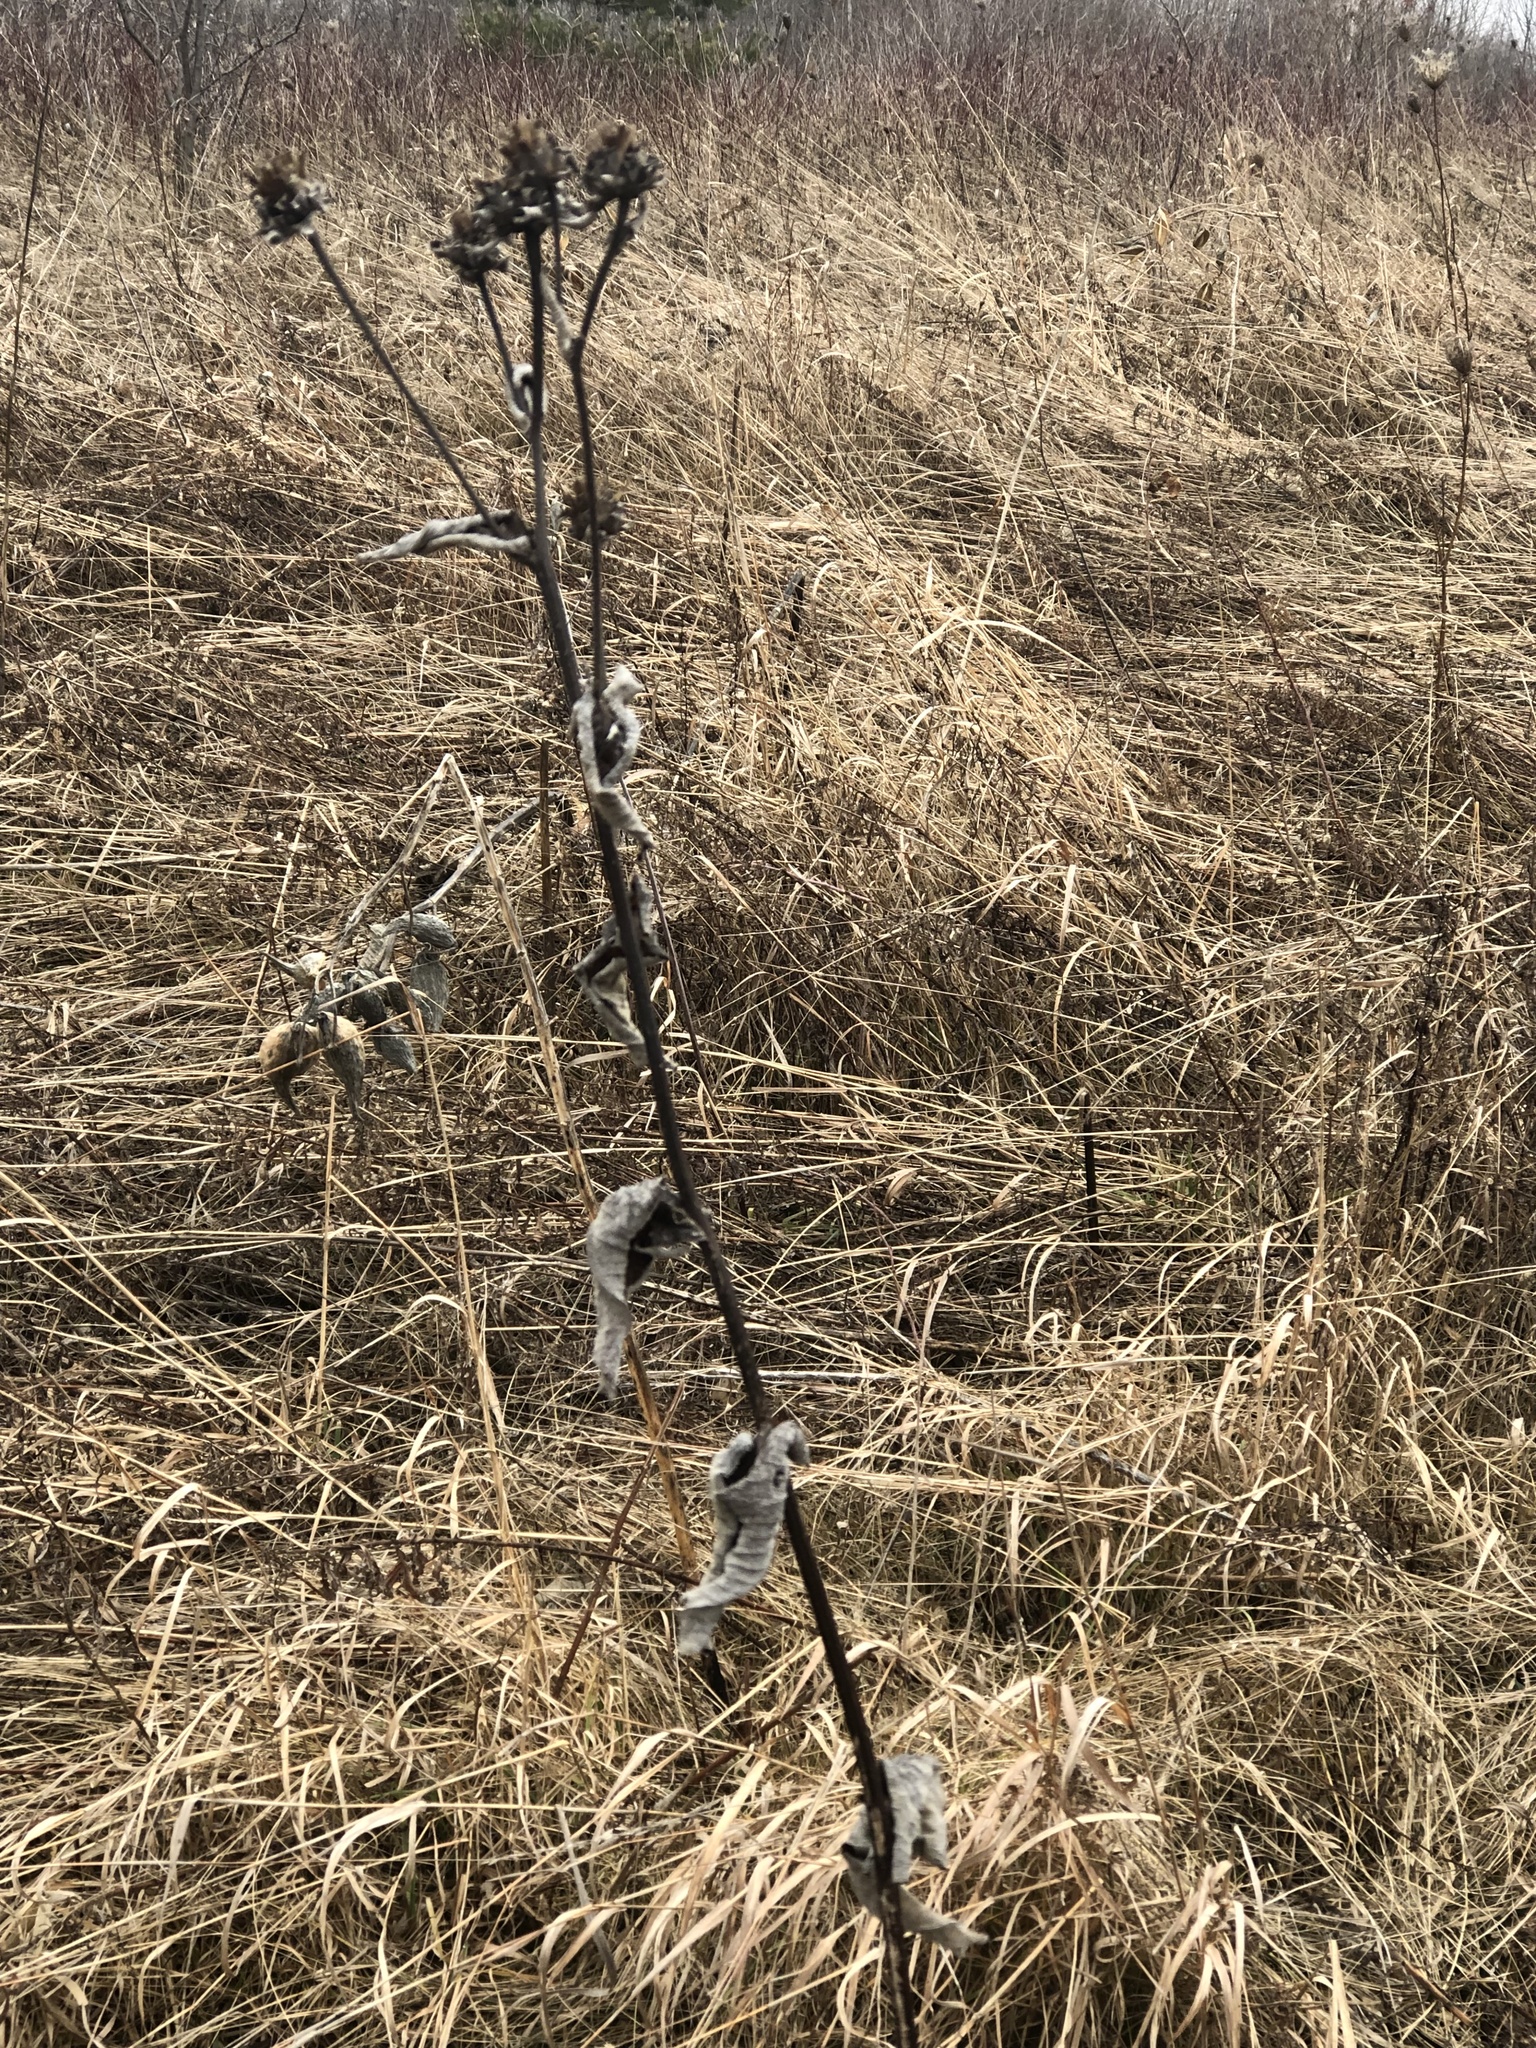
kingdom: Plantae
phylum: Tracheophyta
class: Magnoliopsida
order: Asterales
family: Asteraceae
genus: Inula
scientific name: Inula helenium
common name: Elecampane
